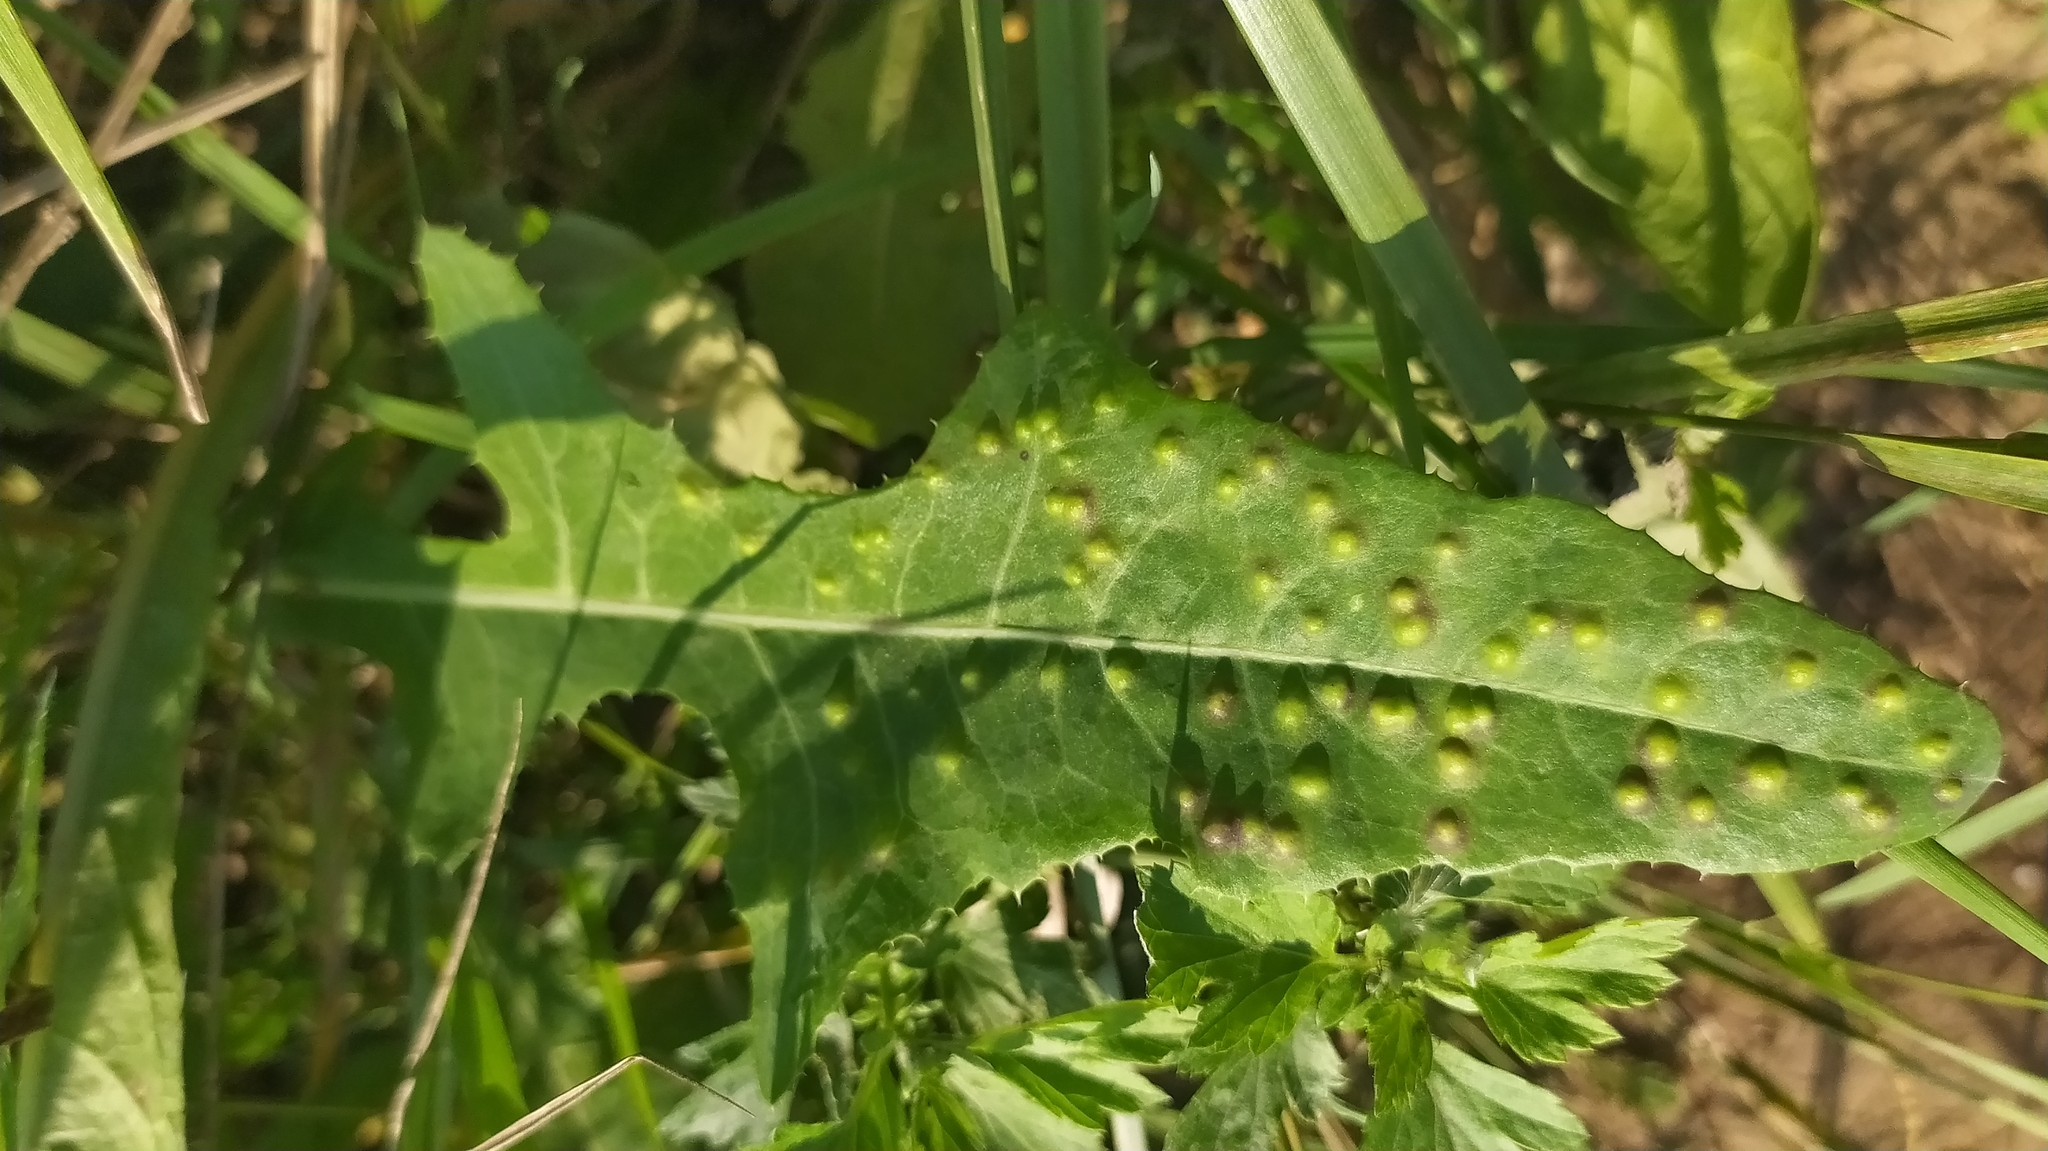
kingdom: Animalia
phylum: Arthropoda
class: Insecta
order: Diptera
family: Cecidomyiidae
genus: Cystiphora
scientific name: Cystiphora sonchi
